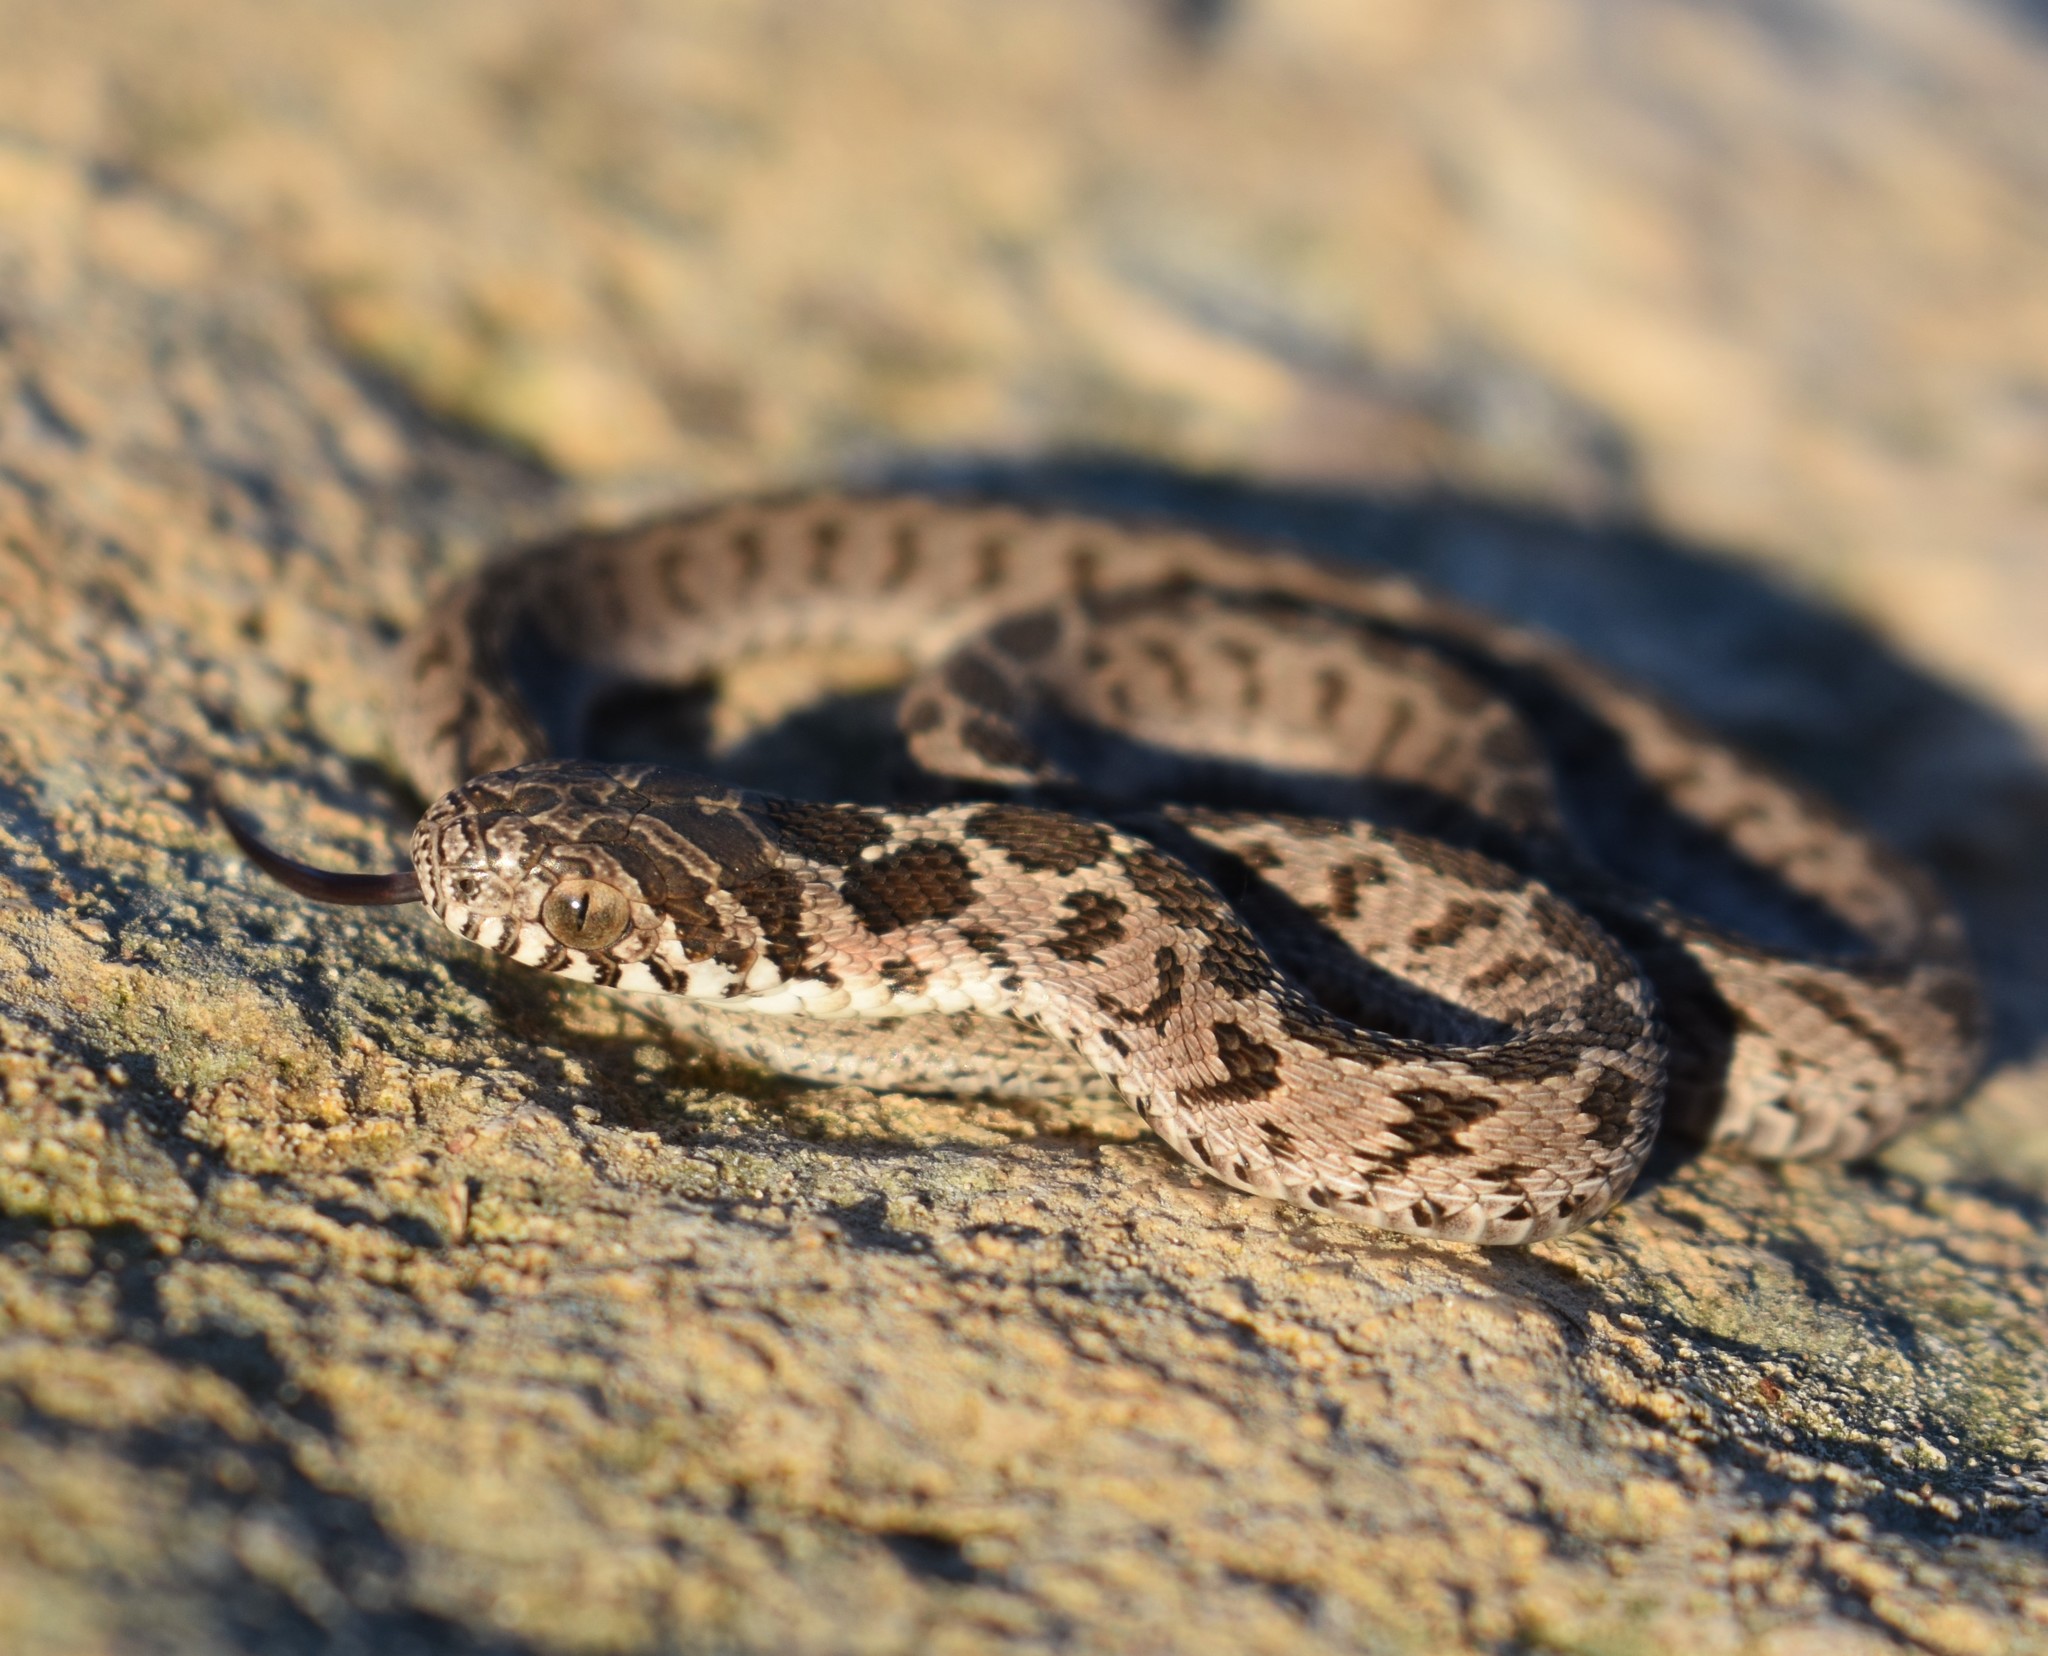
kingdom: Animalia
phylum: Chordata
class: Squamata
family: Colubridae
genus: Dasypeltis
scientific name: Dasypeltis scabra
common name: Common egg eater
